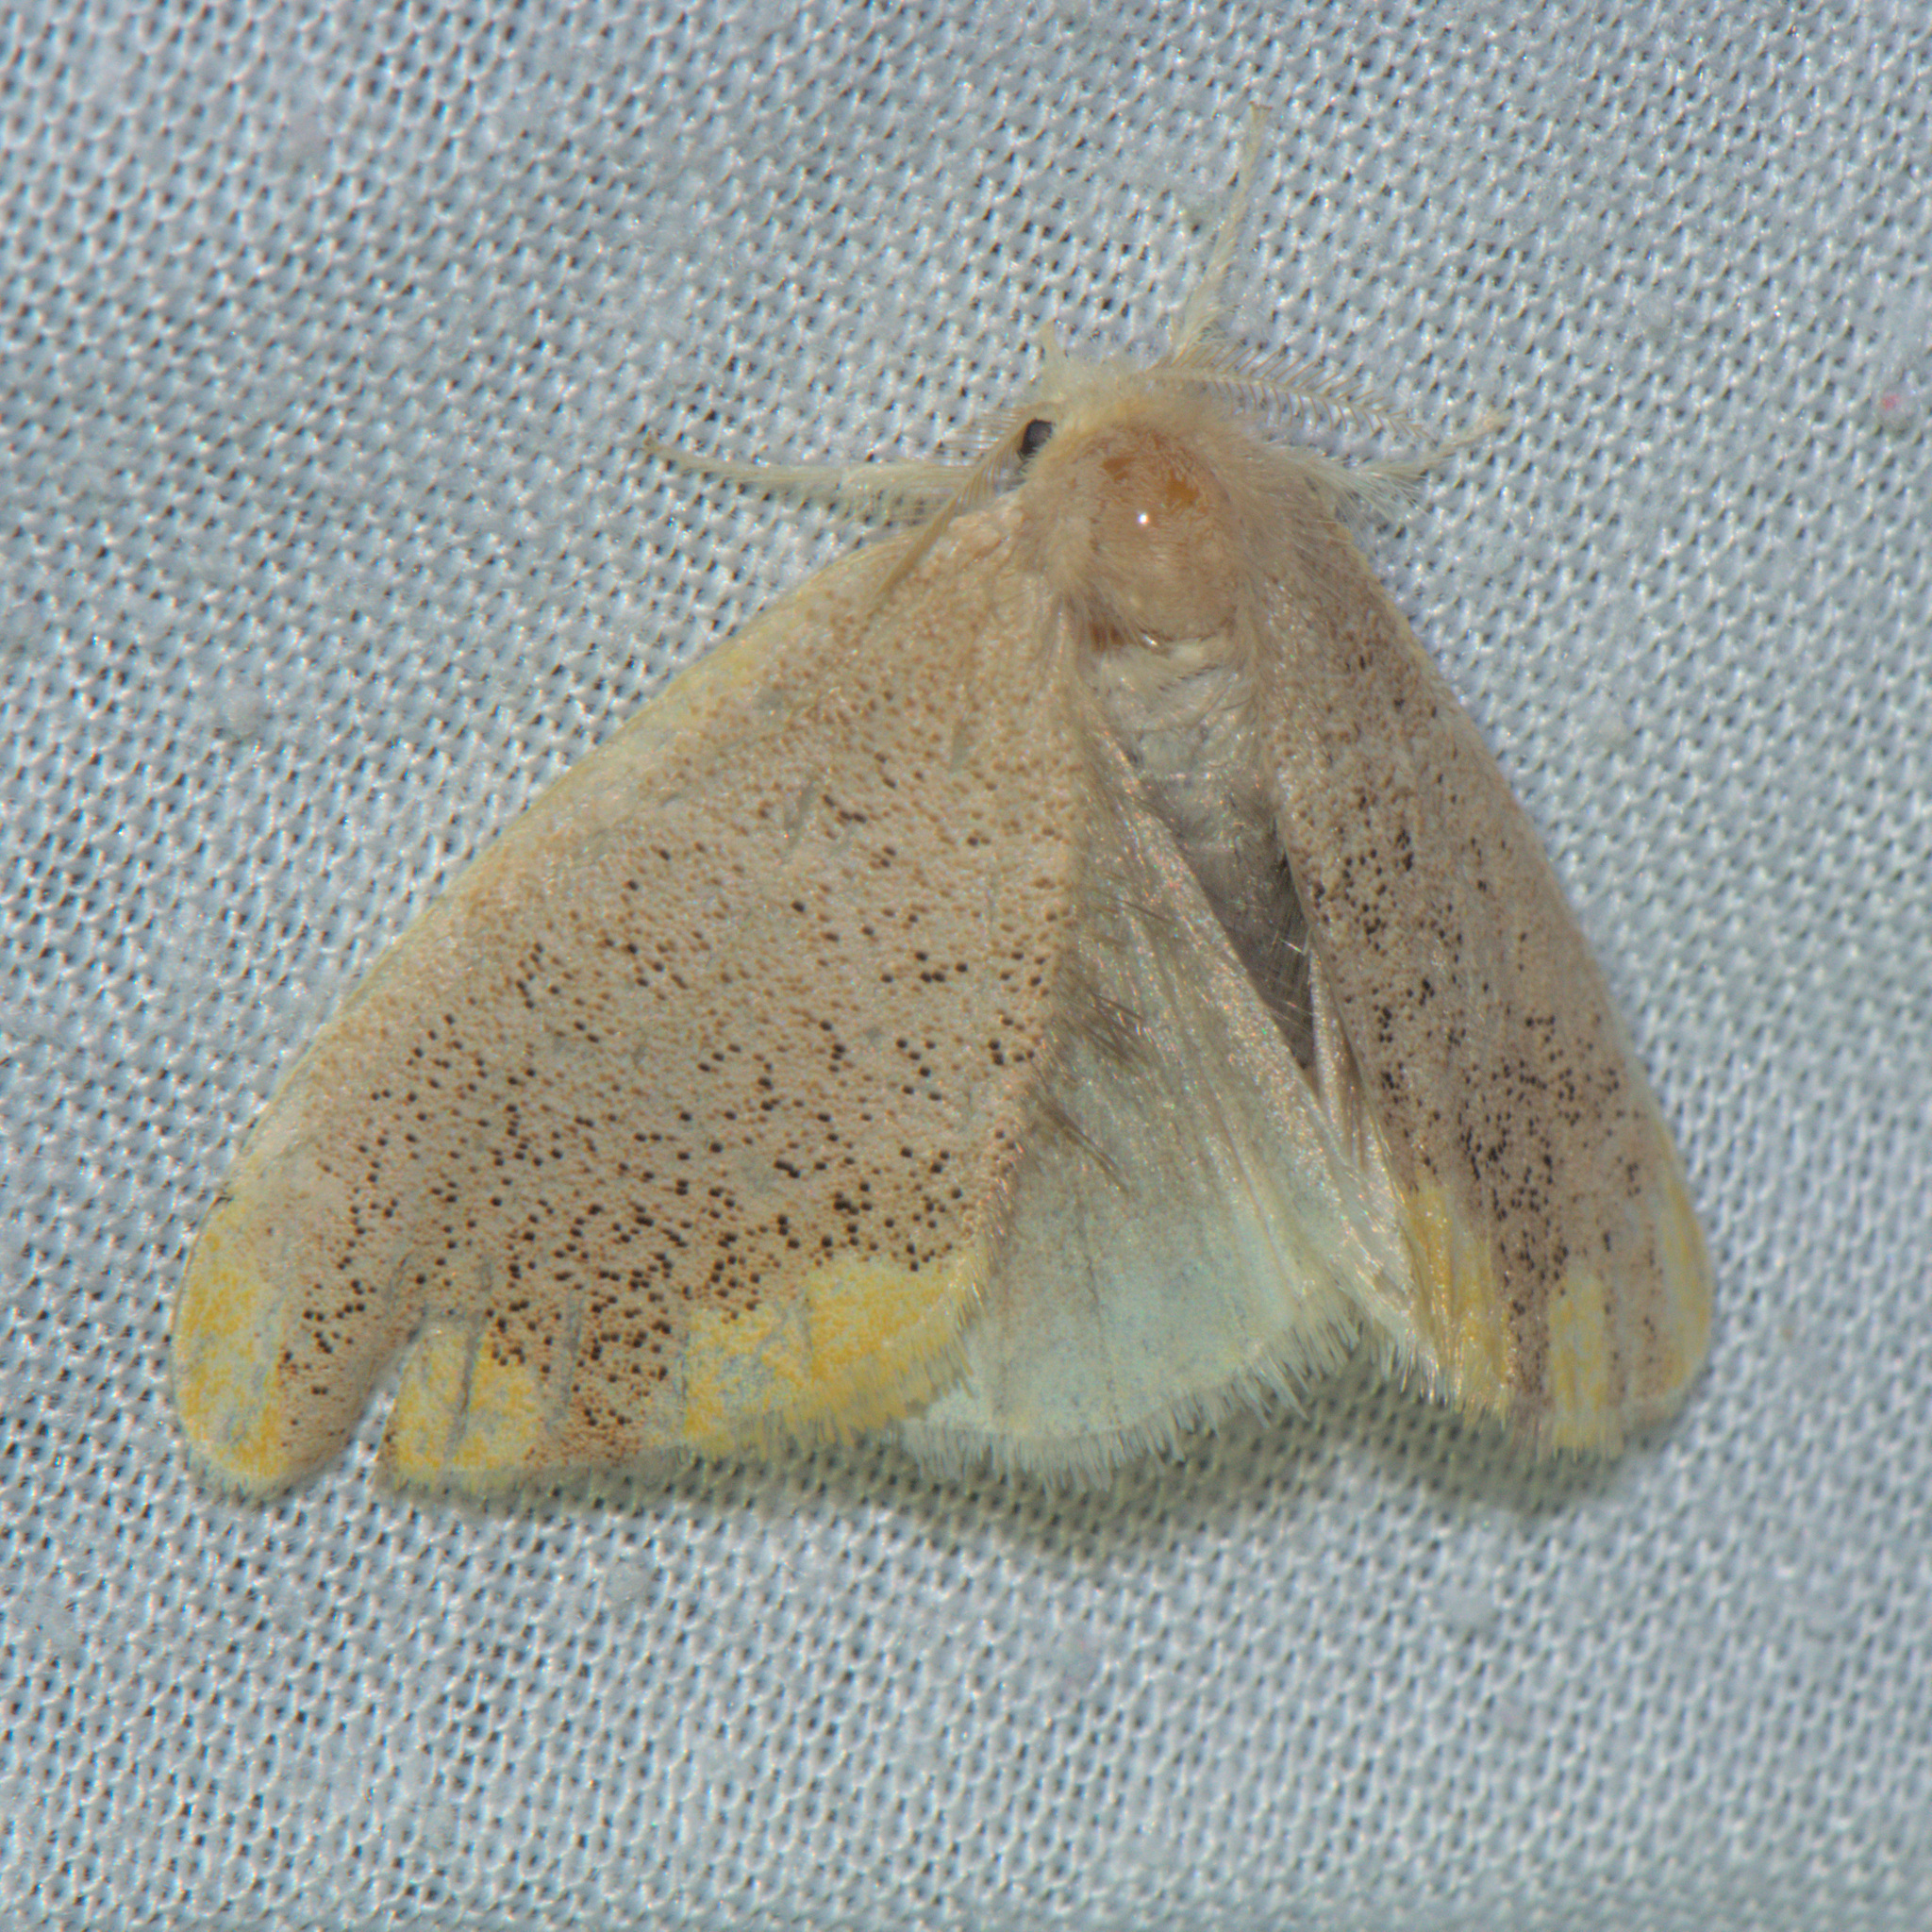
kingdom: Animalia
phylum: Arthropoda
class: Insecta
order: Lepidoptera
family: Erebidae
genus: Orvasca
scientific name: Orvasca subnotata
